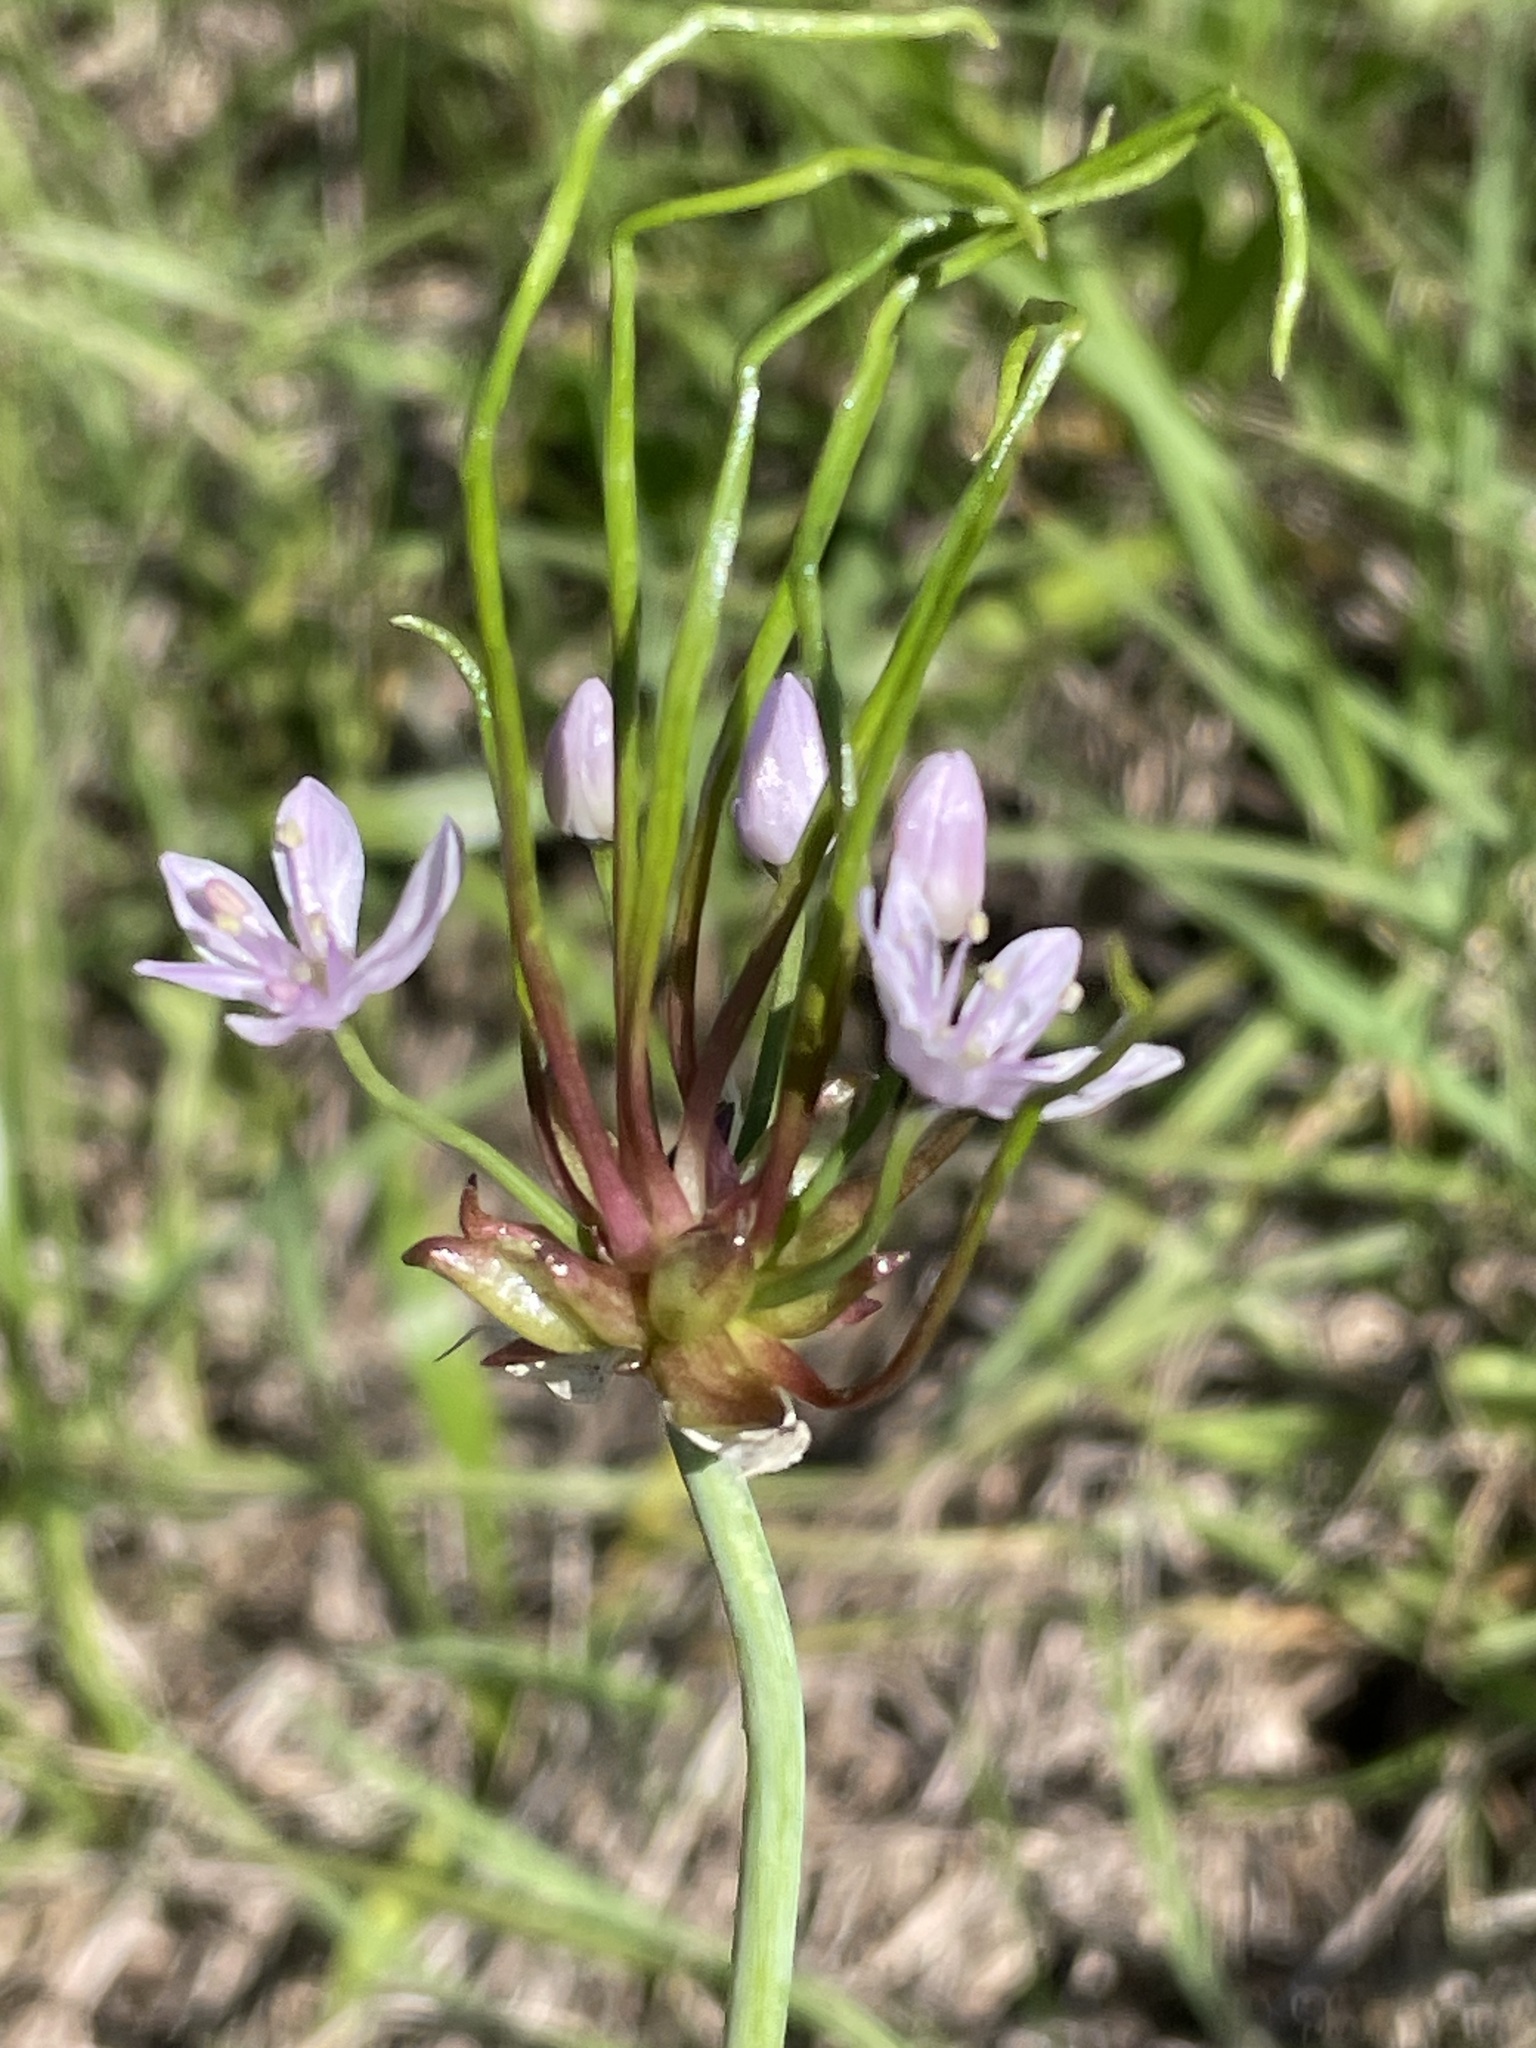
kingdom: Plantae
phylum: Tracheophyta
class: Liliopsida
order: Asparagales
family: Amaryllidaceae
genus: Allium
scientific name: Allium canadense
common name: Meadow garlic
